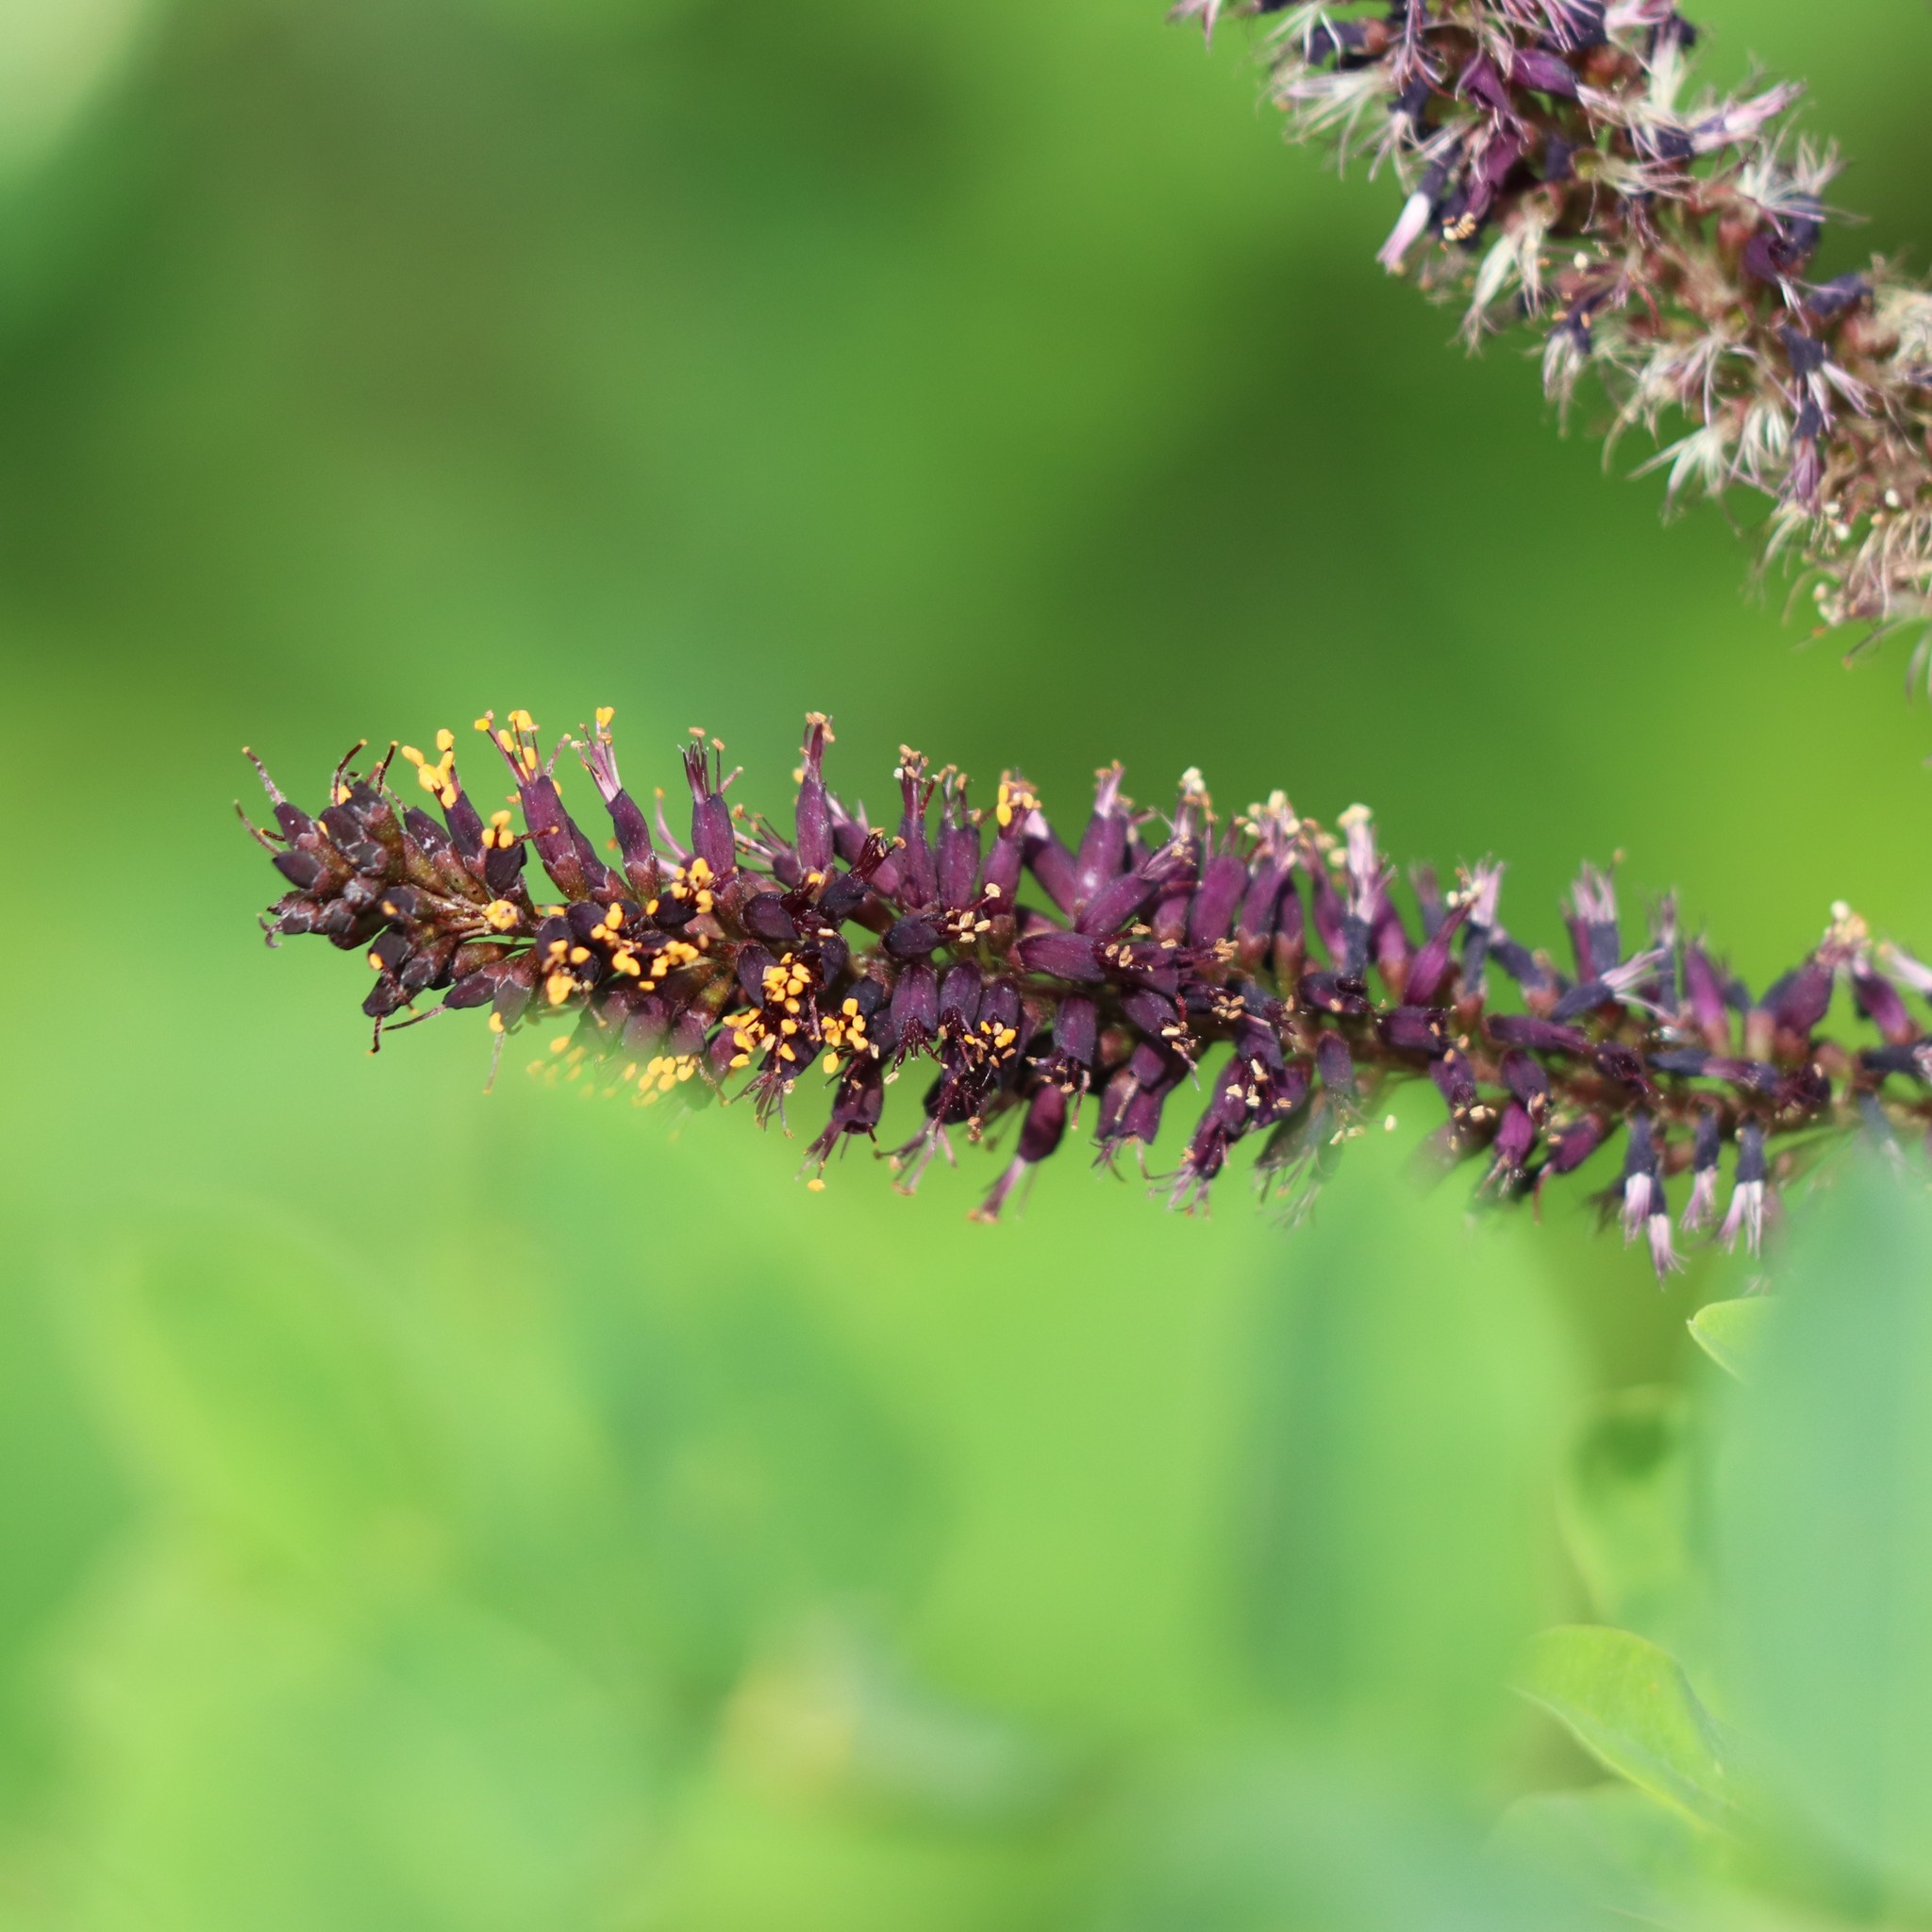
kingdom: Plantae
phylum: Tracheophyta
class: Magnoliopsida
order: Fabales
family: Fabaceae
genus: Amorpha
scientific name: Amorpha fruticosa
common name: False indigo
